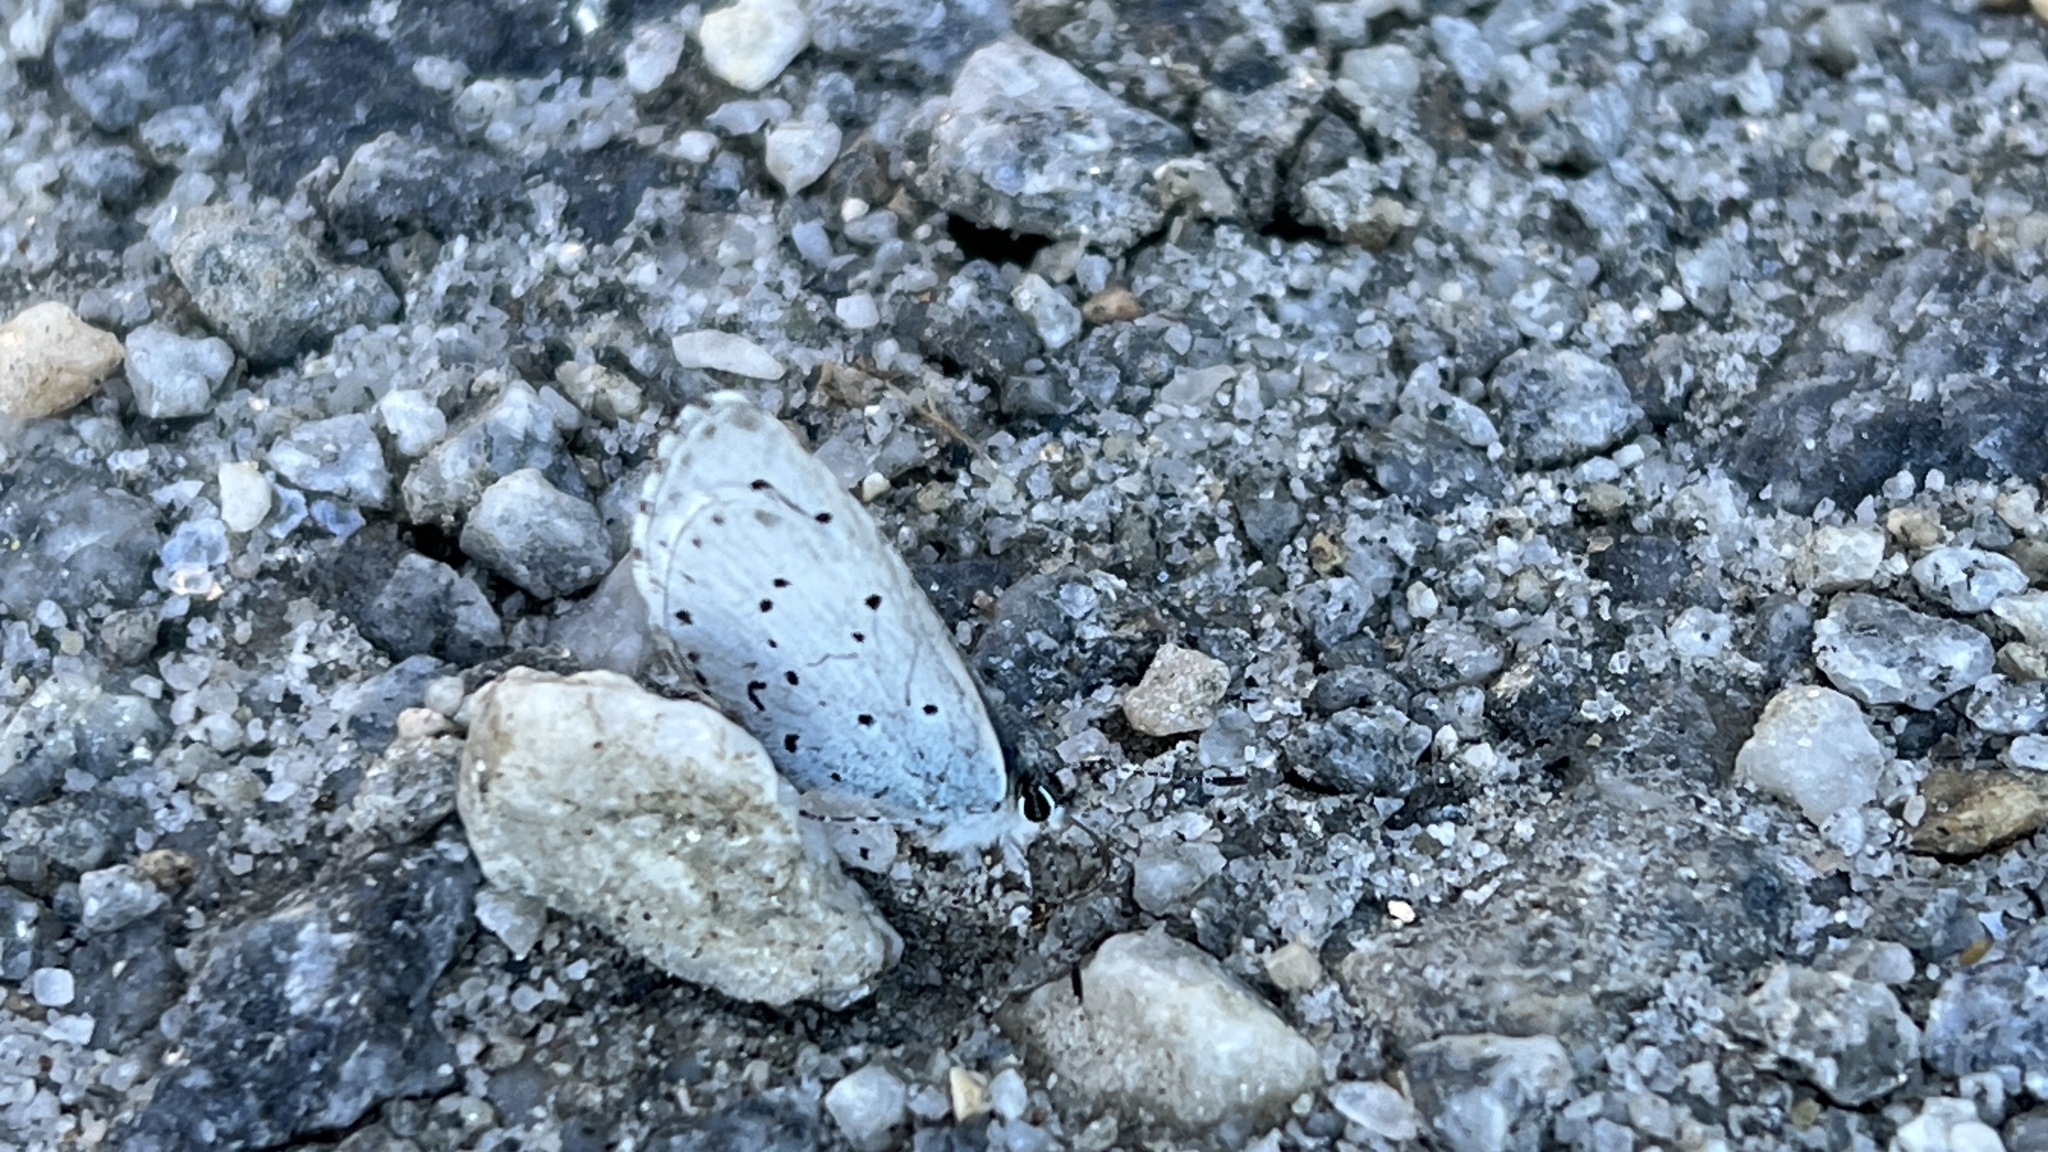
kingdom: Animalia
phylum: Arthropoda
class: Insecta
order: Lepidoptera
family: Lycaenidae
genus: Celastrina
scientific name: Celastrina argiolus
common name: Holly blue
